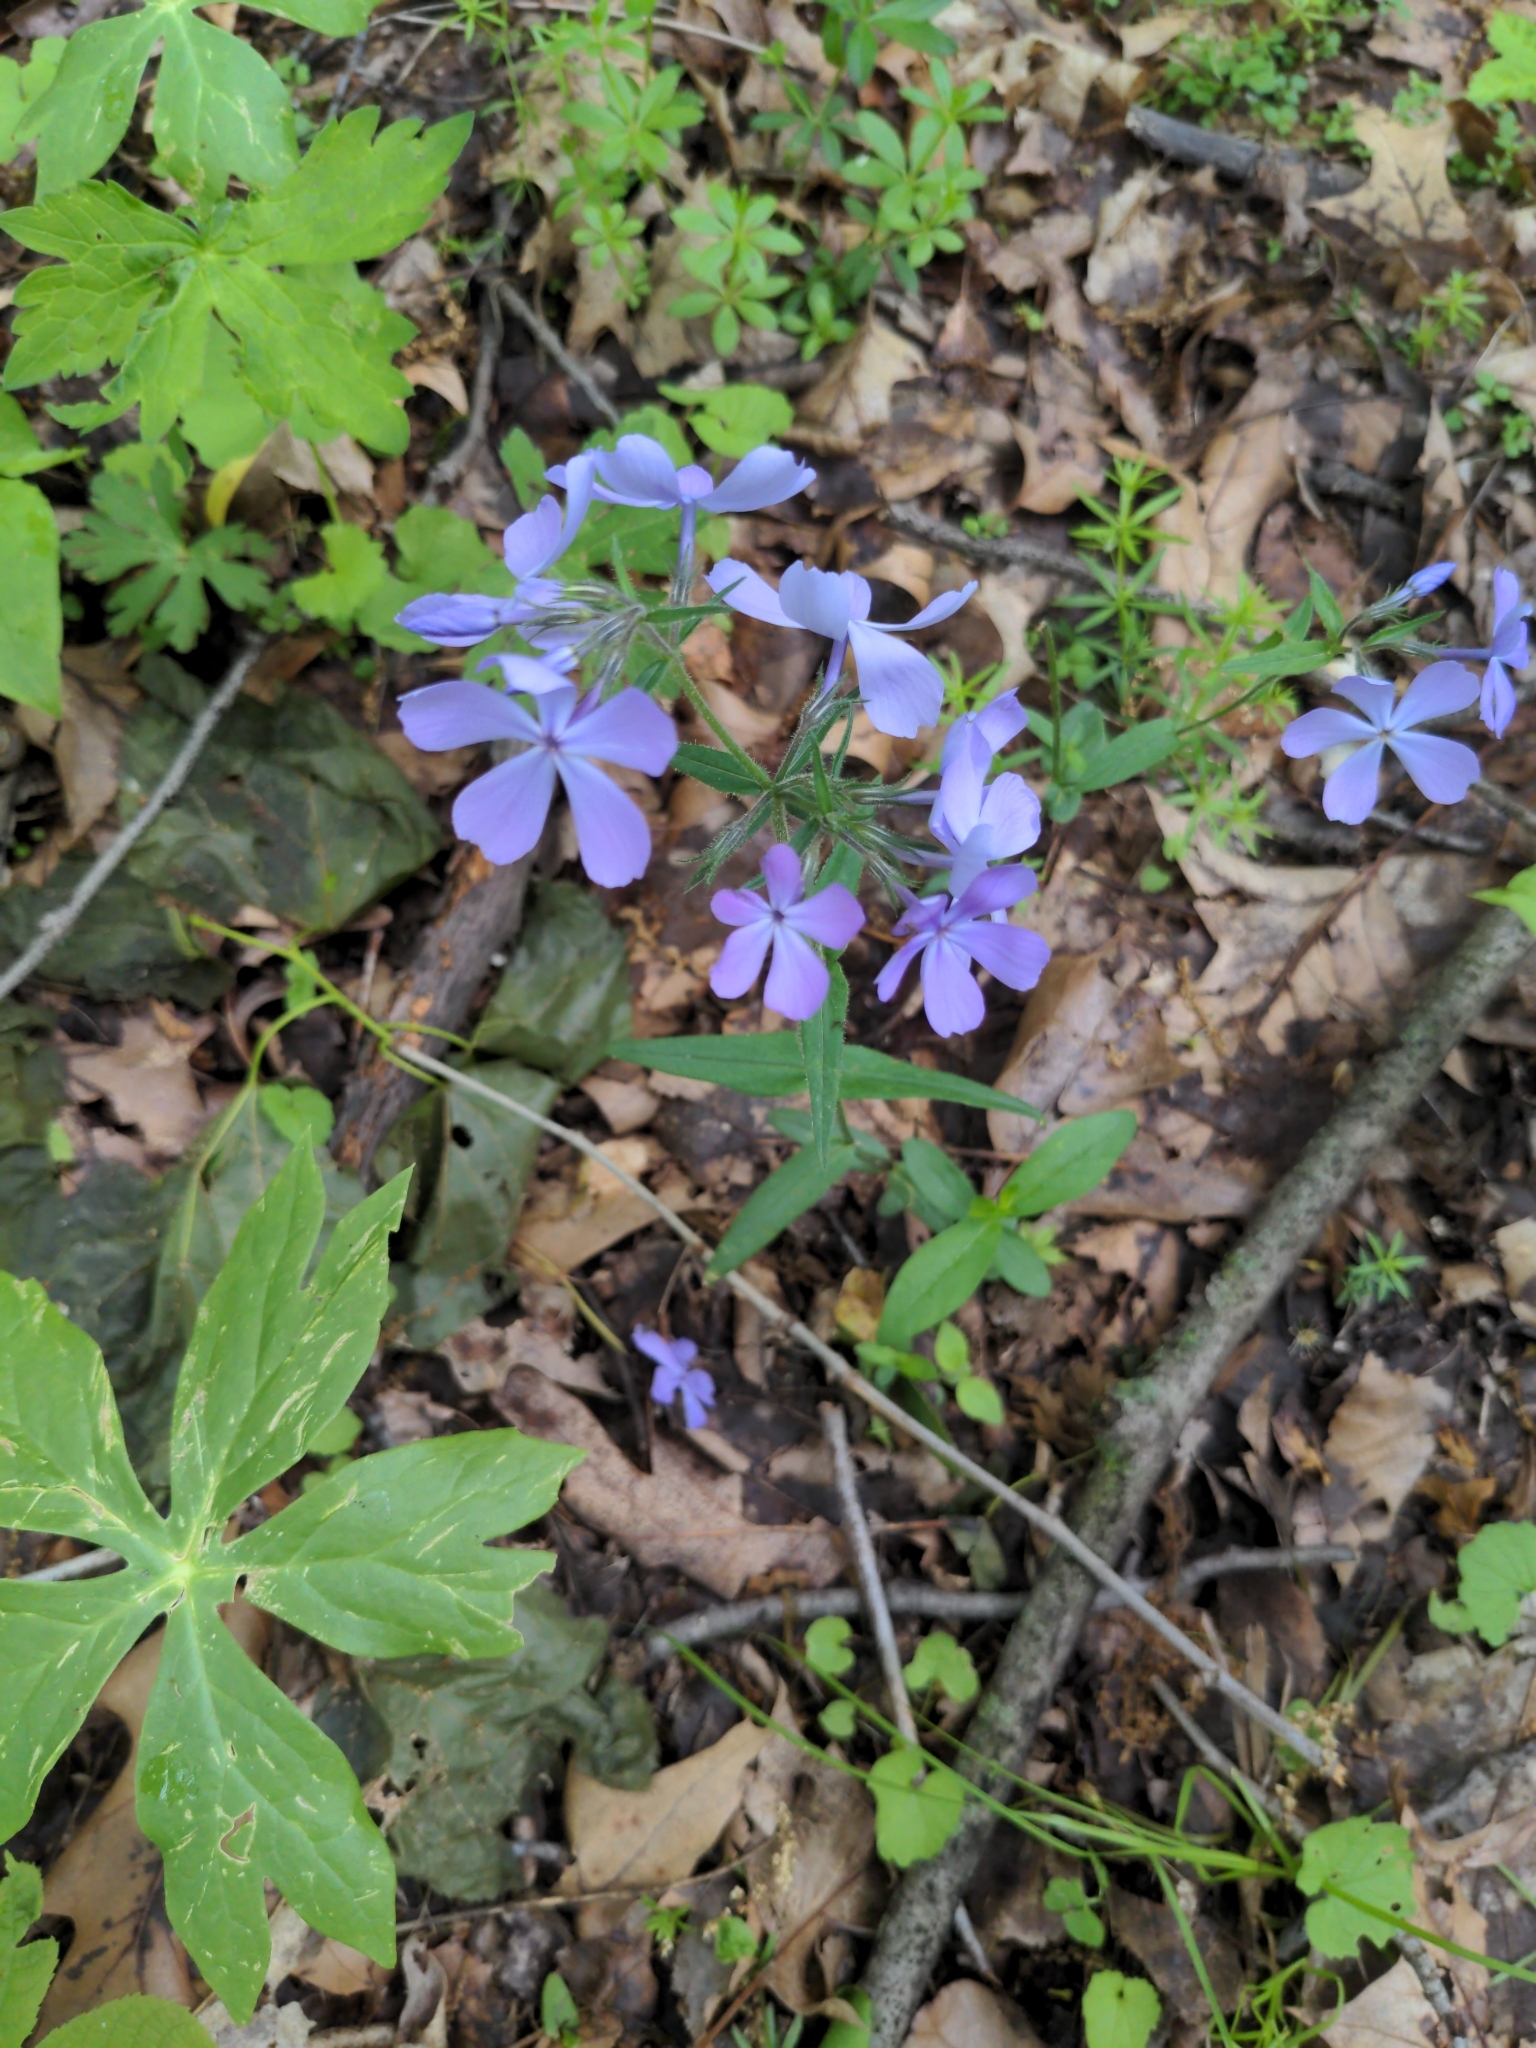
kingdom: Plantae
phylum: Tracheophyta
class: Magnoliopsida
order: Ericales
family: Polemoniaceae
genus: Phlox
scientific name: Phlox divaricata
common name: Blue phlox
